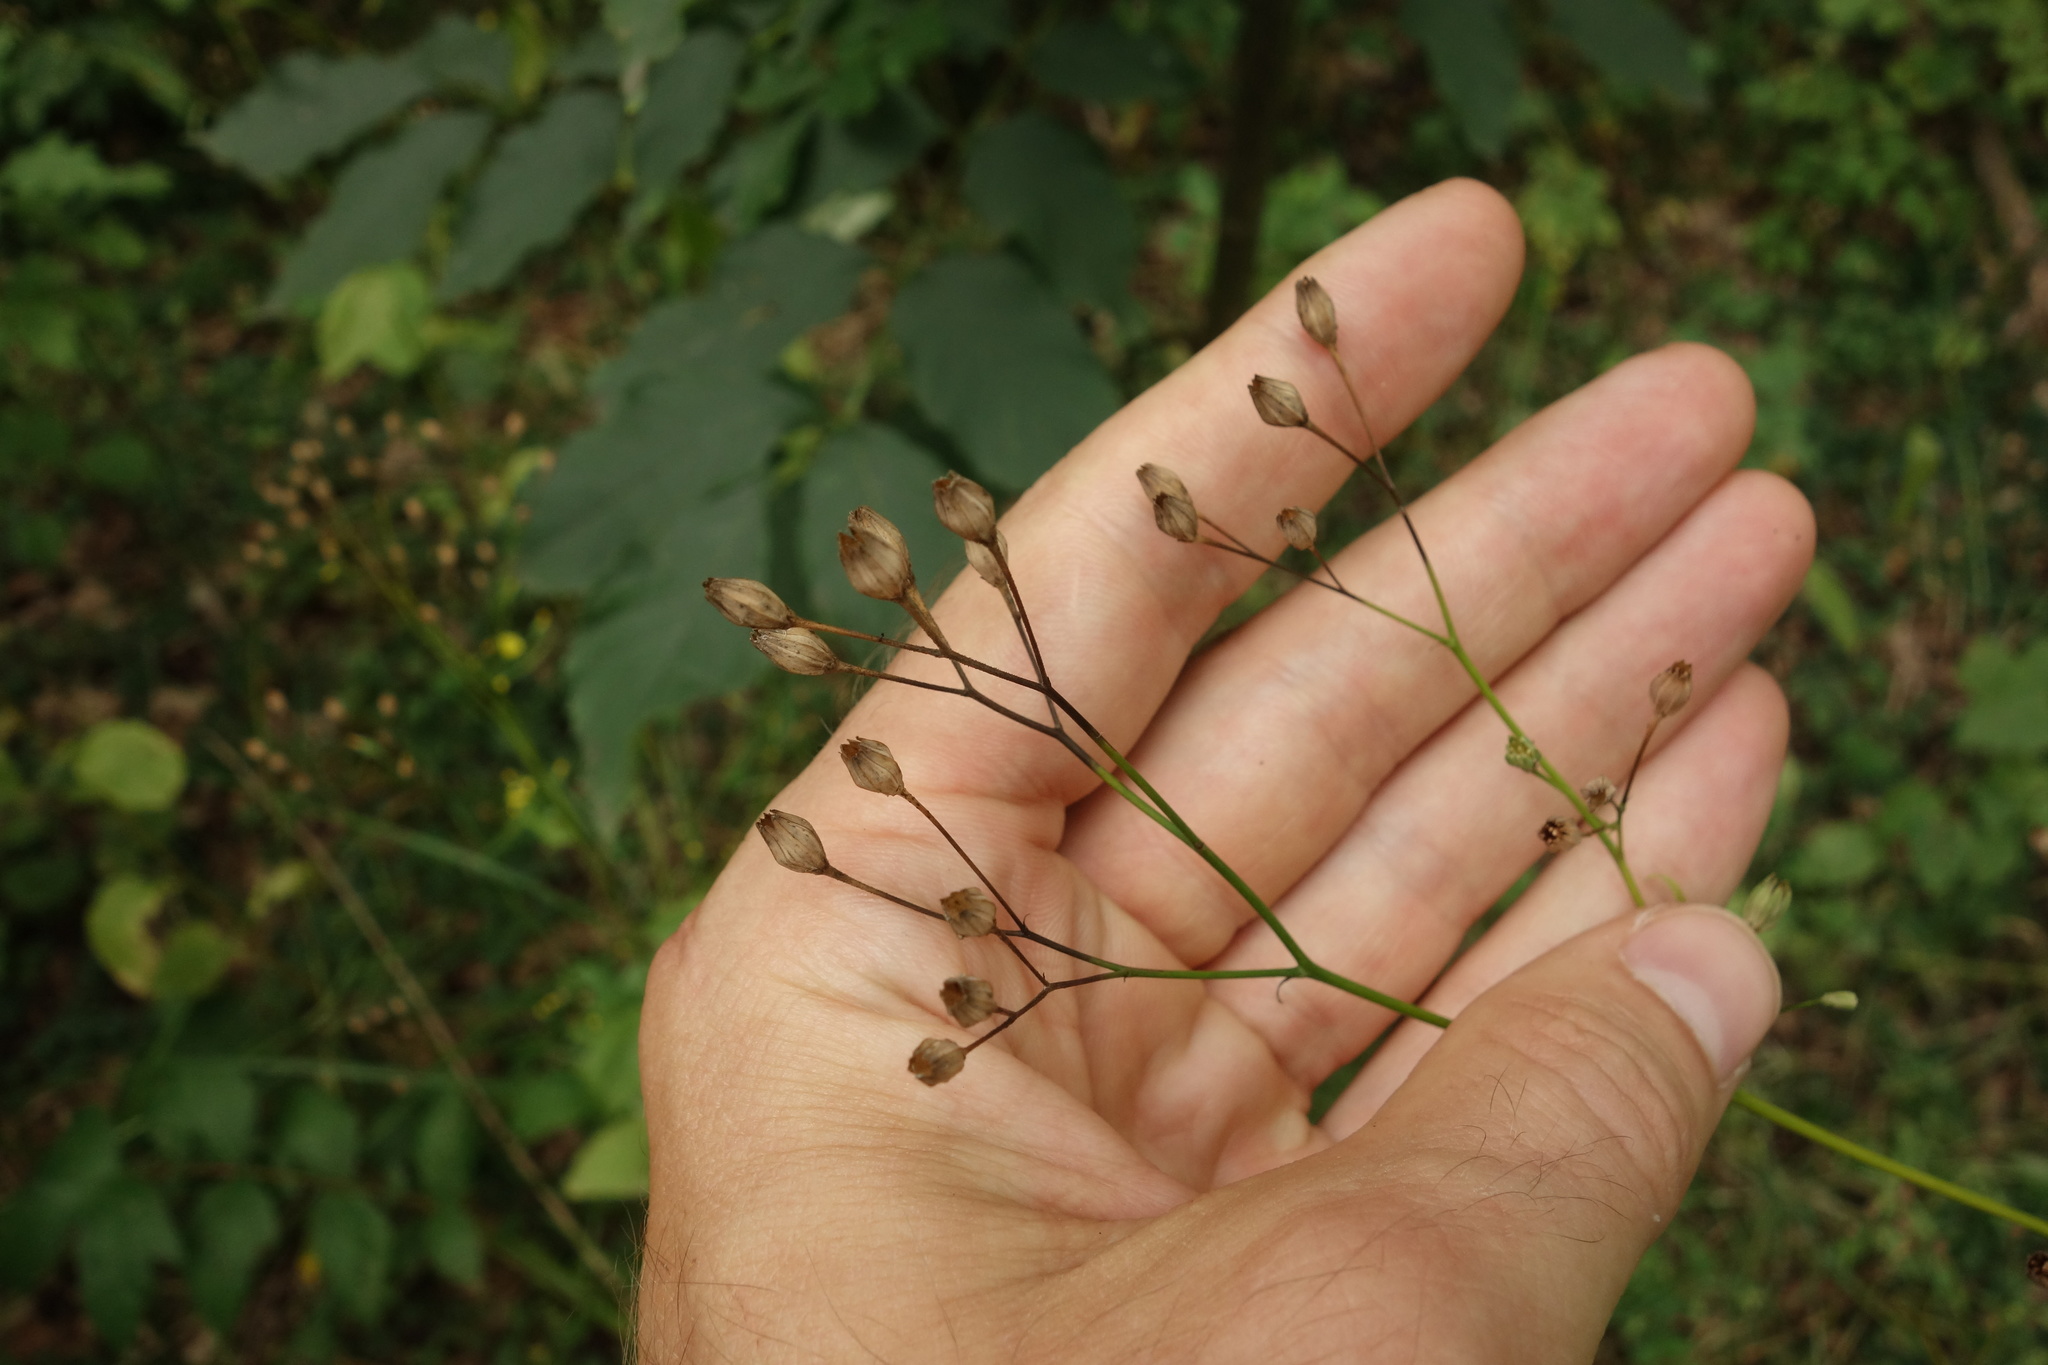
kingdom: Plantae
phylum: Tracheophyta
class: Magnoliopsida
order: Asterales
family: Asteraceae
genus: Lapsana
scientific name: Lapsana communis
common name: Nipplewort
